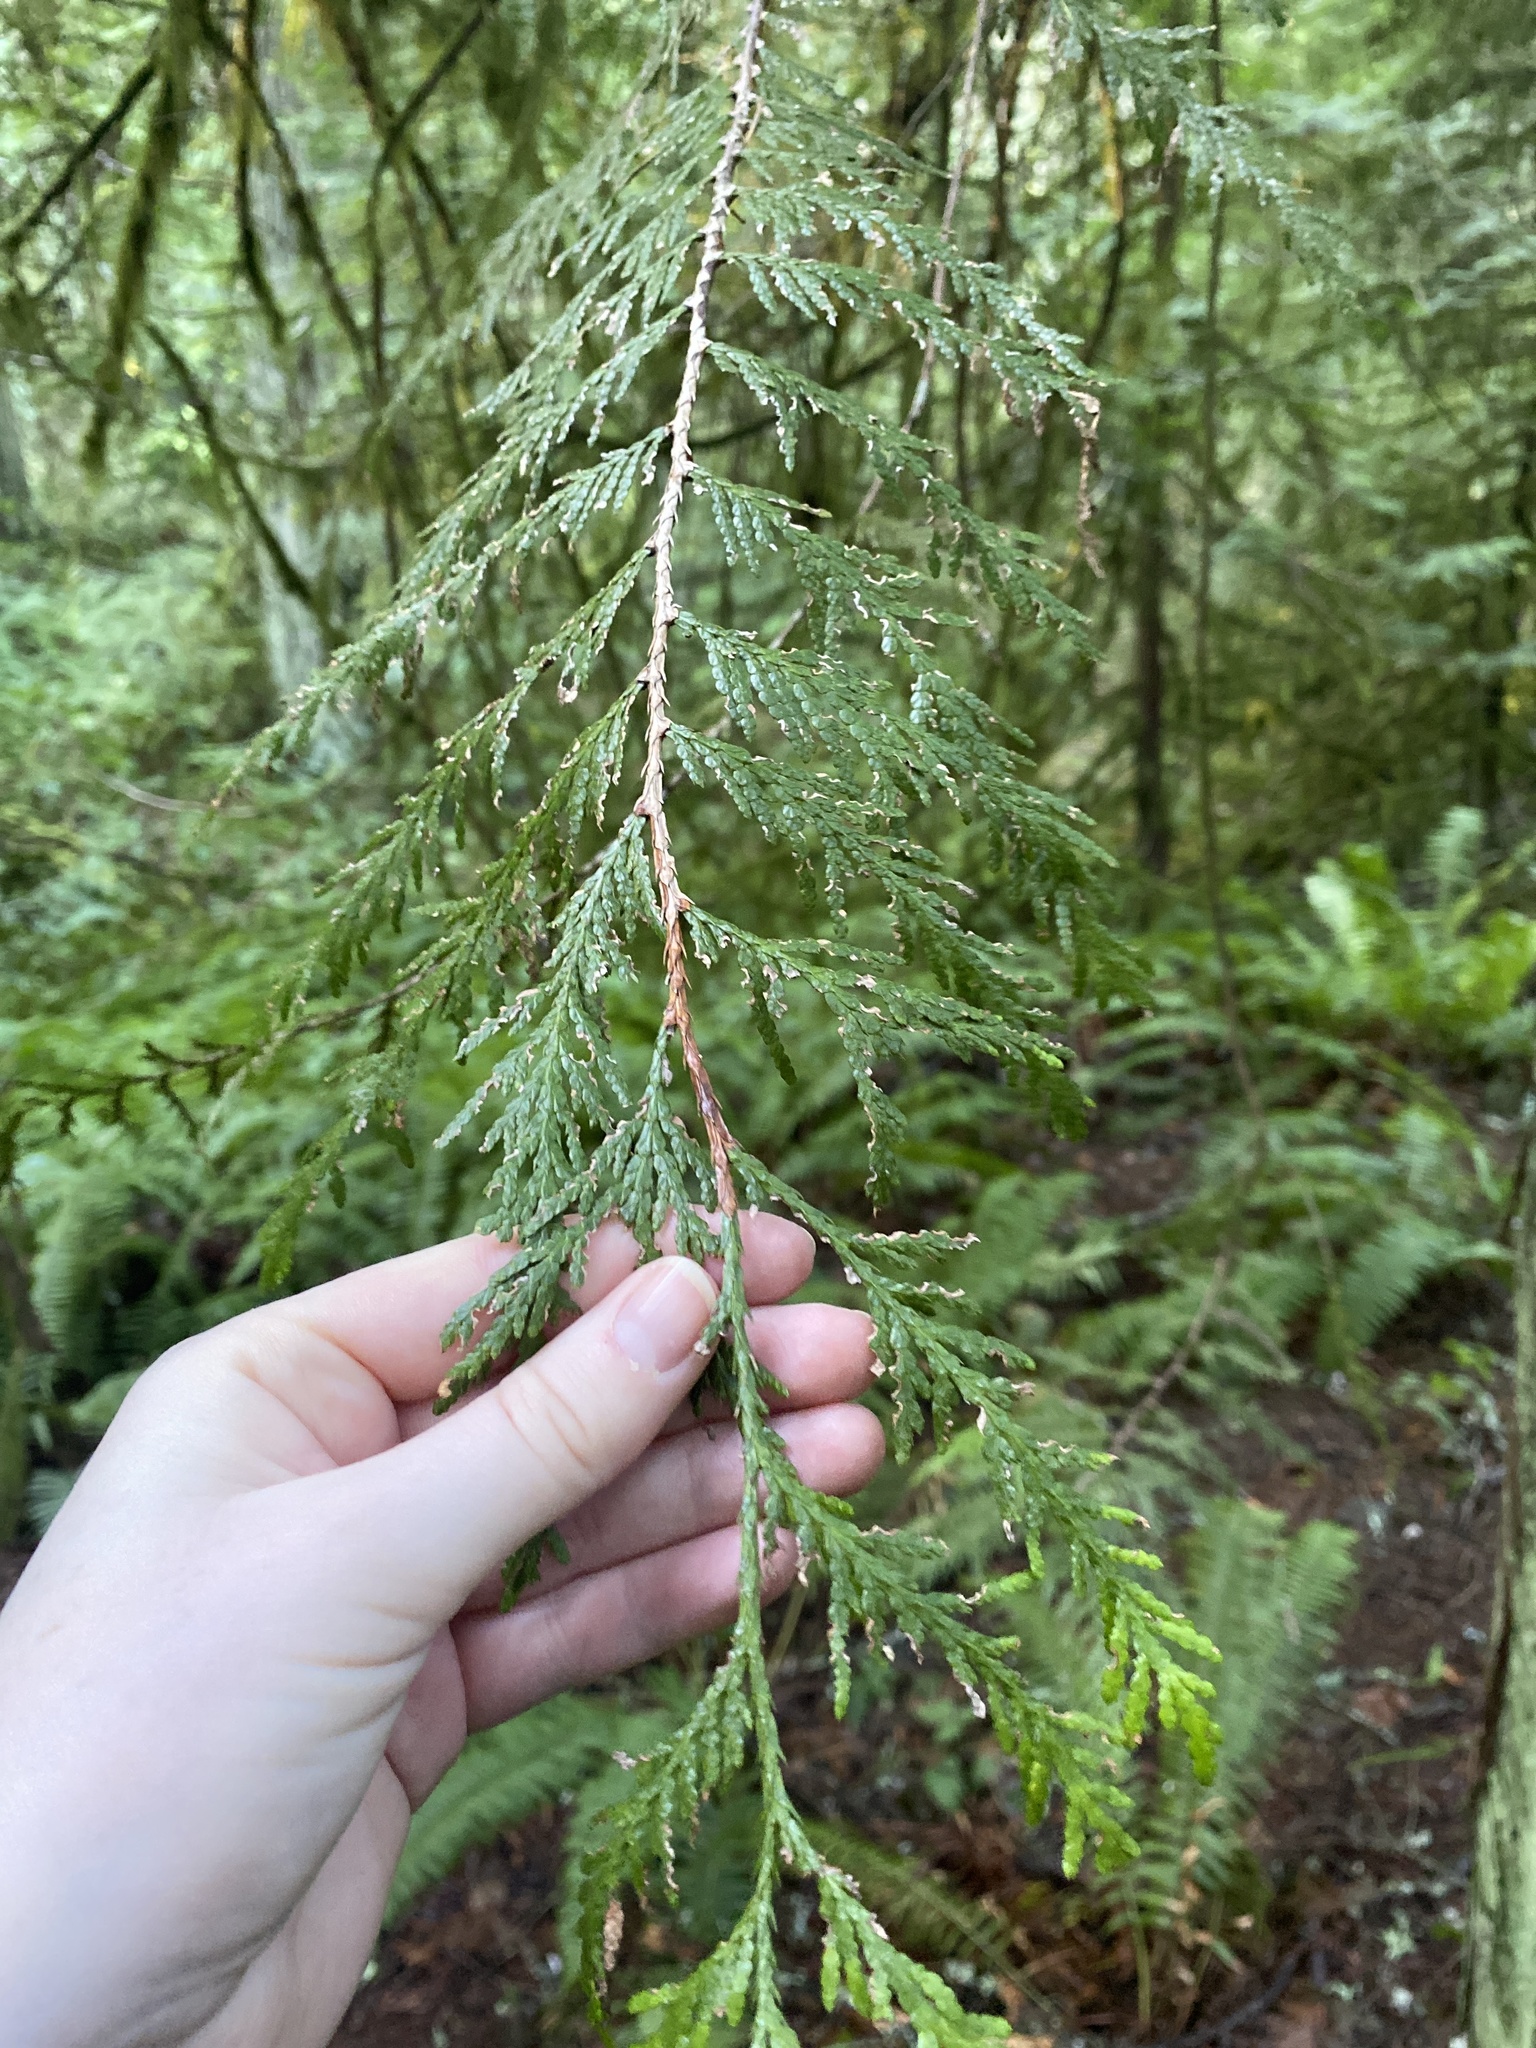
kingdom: Plantae
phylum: Tracheophyta
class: Pinopsida
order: Pinales
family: Cupressaceae
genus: Thuja
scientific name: Thuja plicata
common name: Western red-cedar
